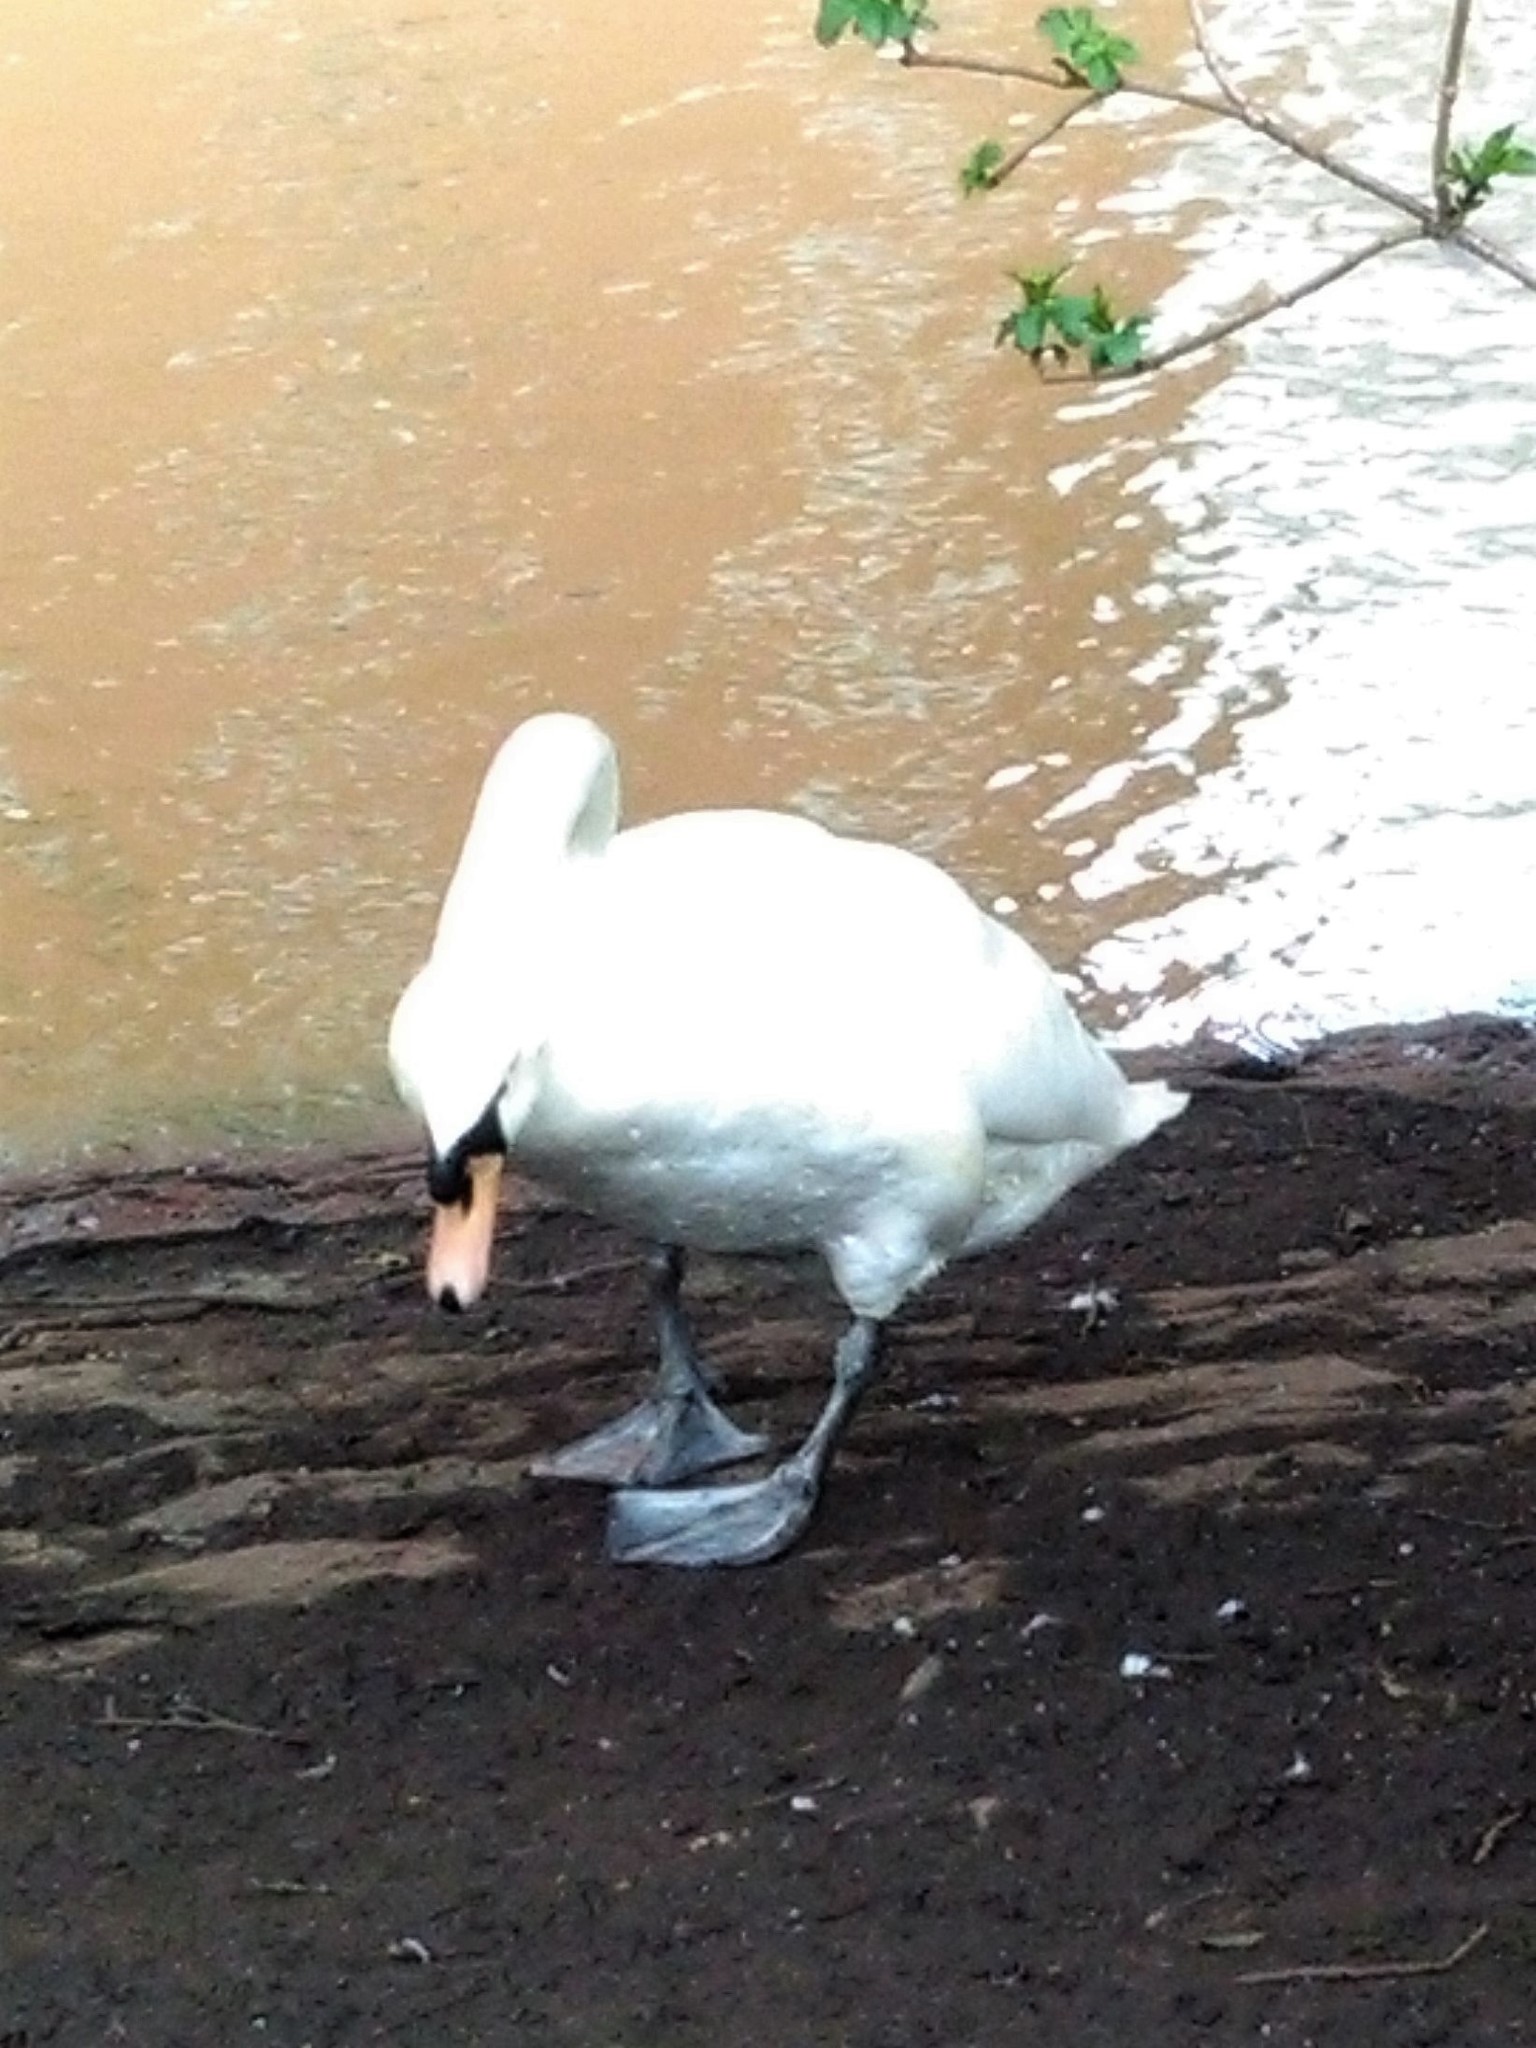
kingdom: Animalia
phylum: Chordata
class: Aves
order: Anseriformes
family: Anatidae
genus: Cygnus
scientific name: Cygnus olor
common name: Mute swan
